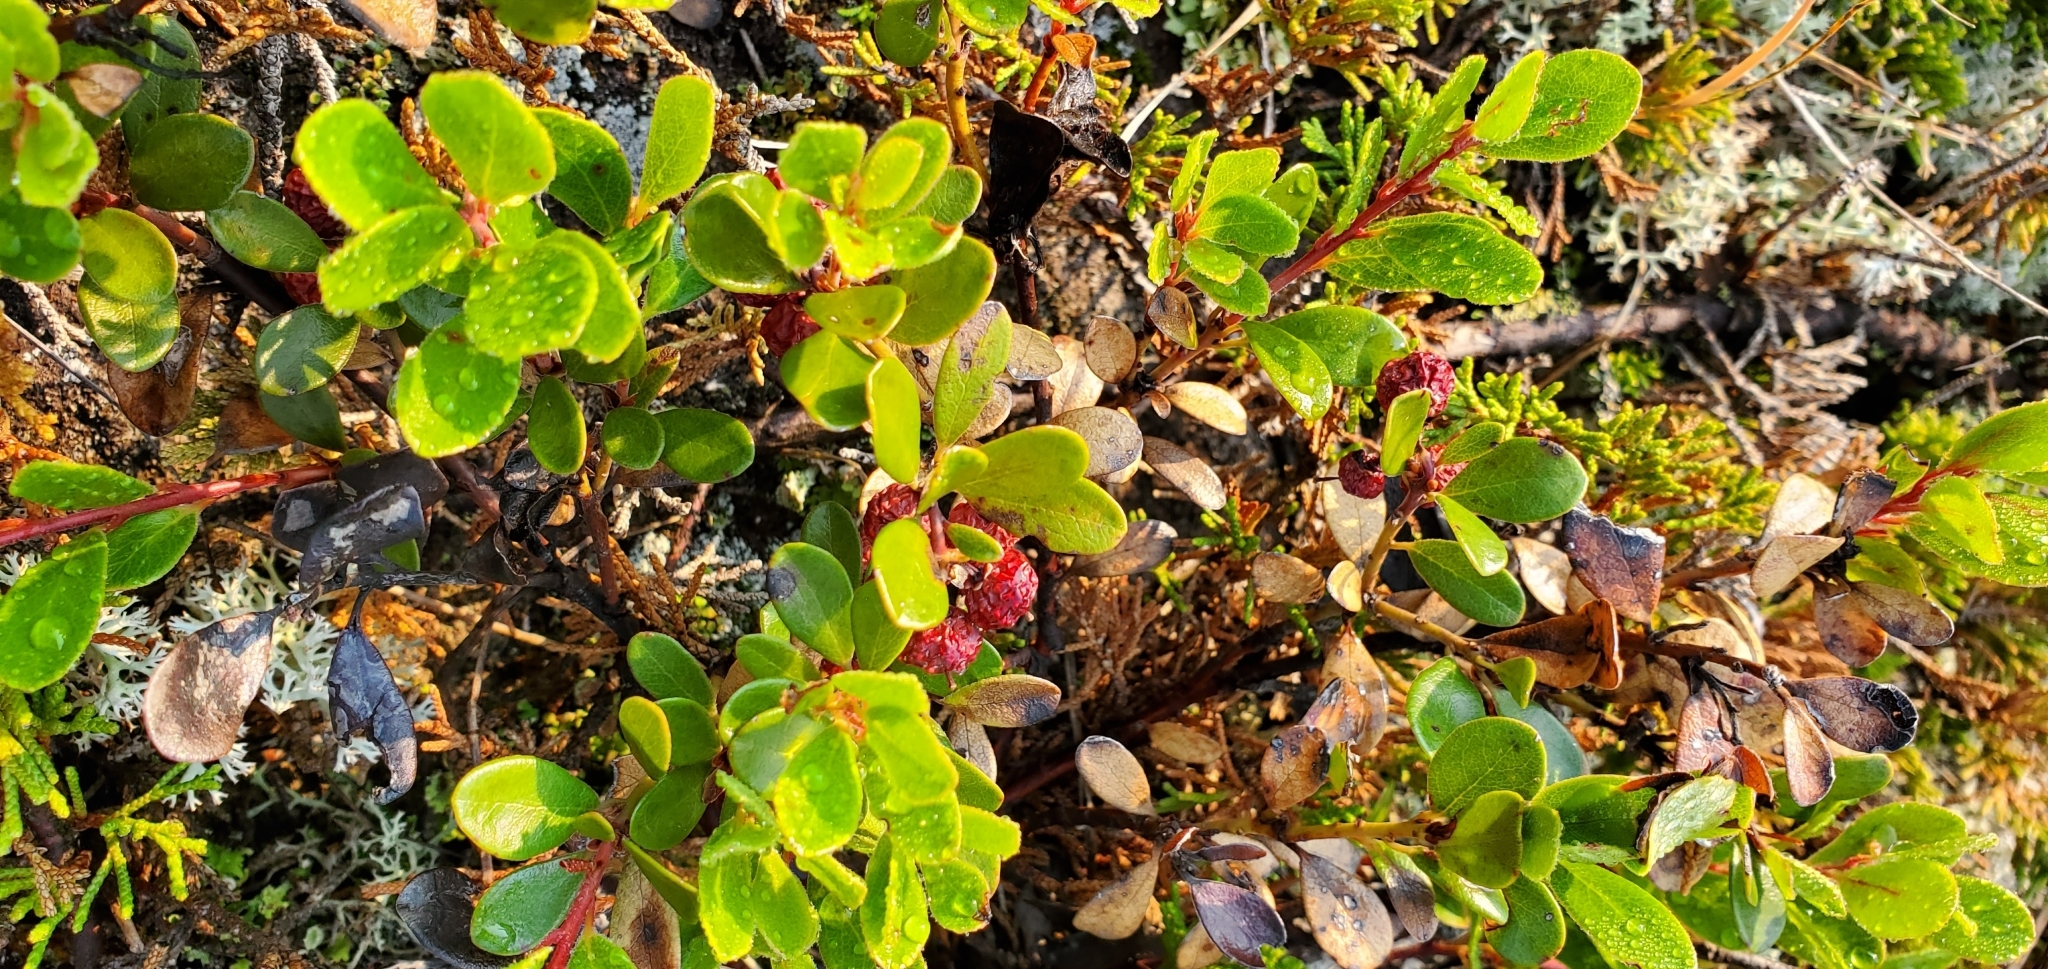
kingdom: Plantae
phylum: Tracheophyta
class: Magnoliopsida
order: Ericales
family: Ericaceae
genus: Arctostaphylos
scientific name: Arctostaphylos uva-ursi
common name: Bearberry
